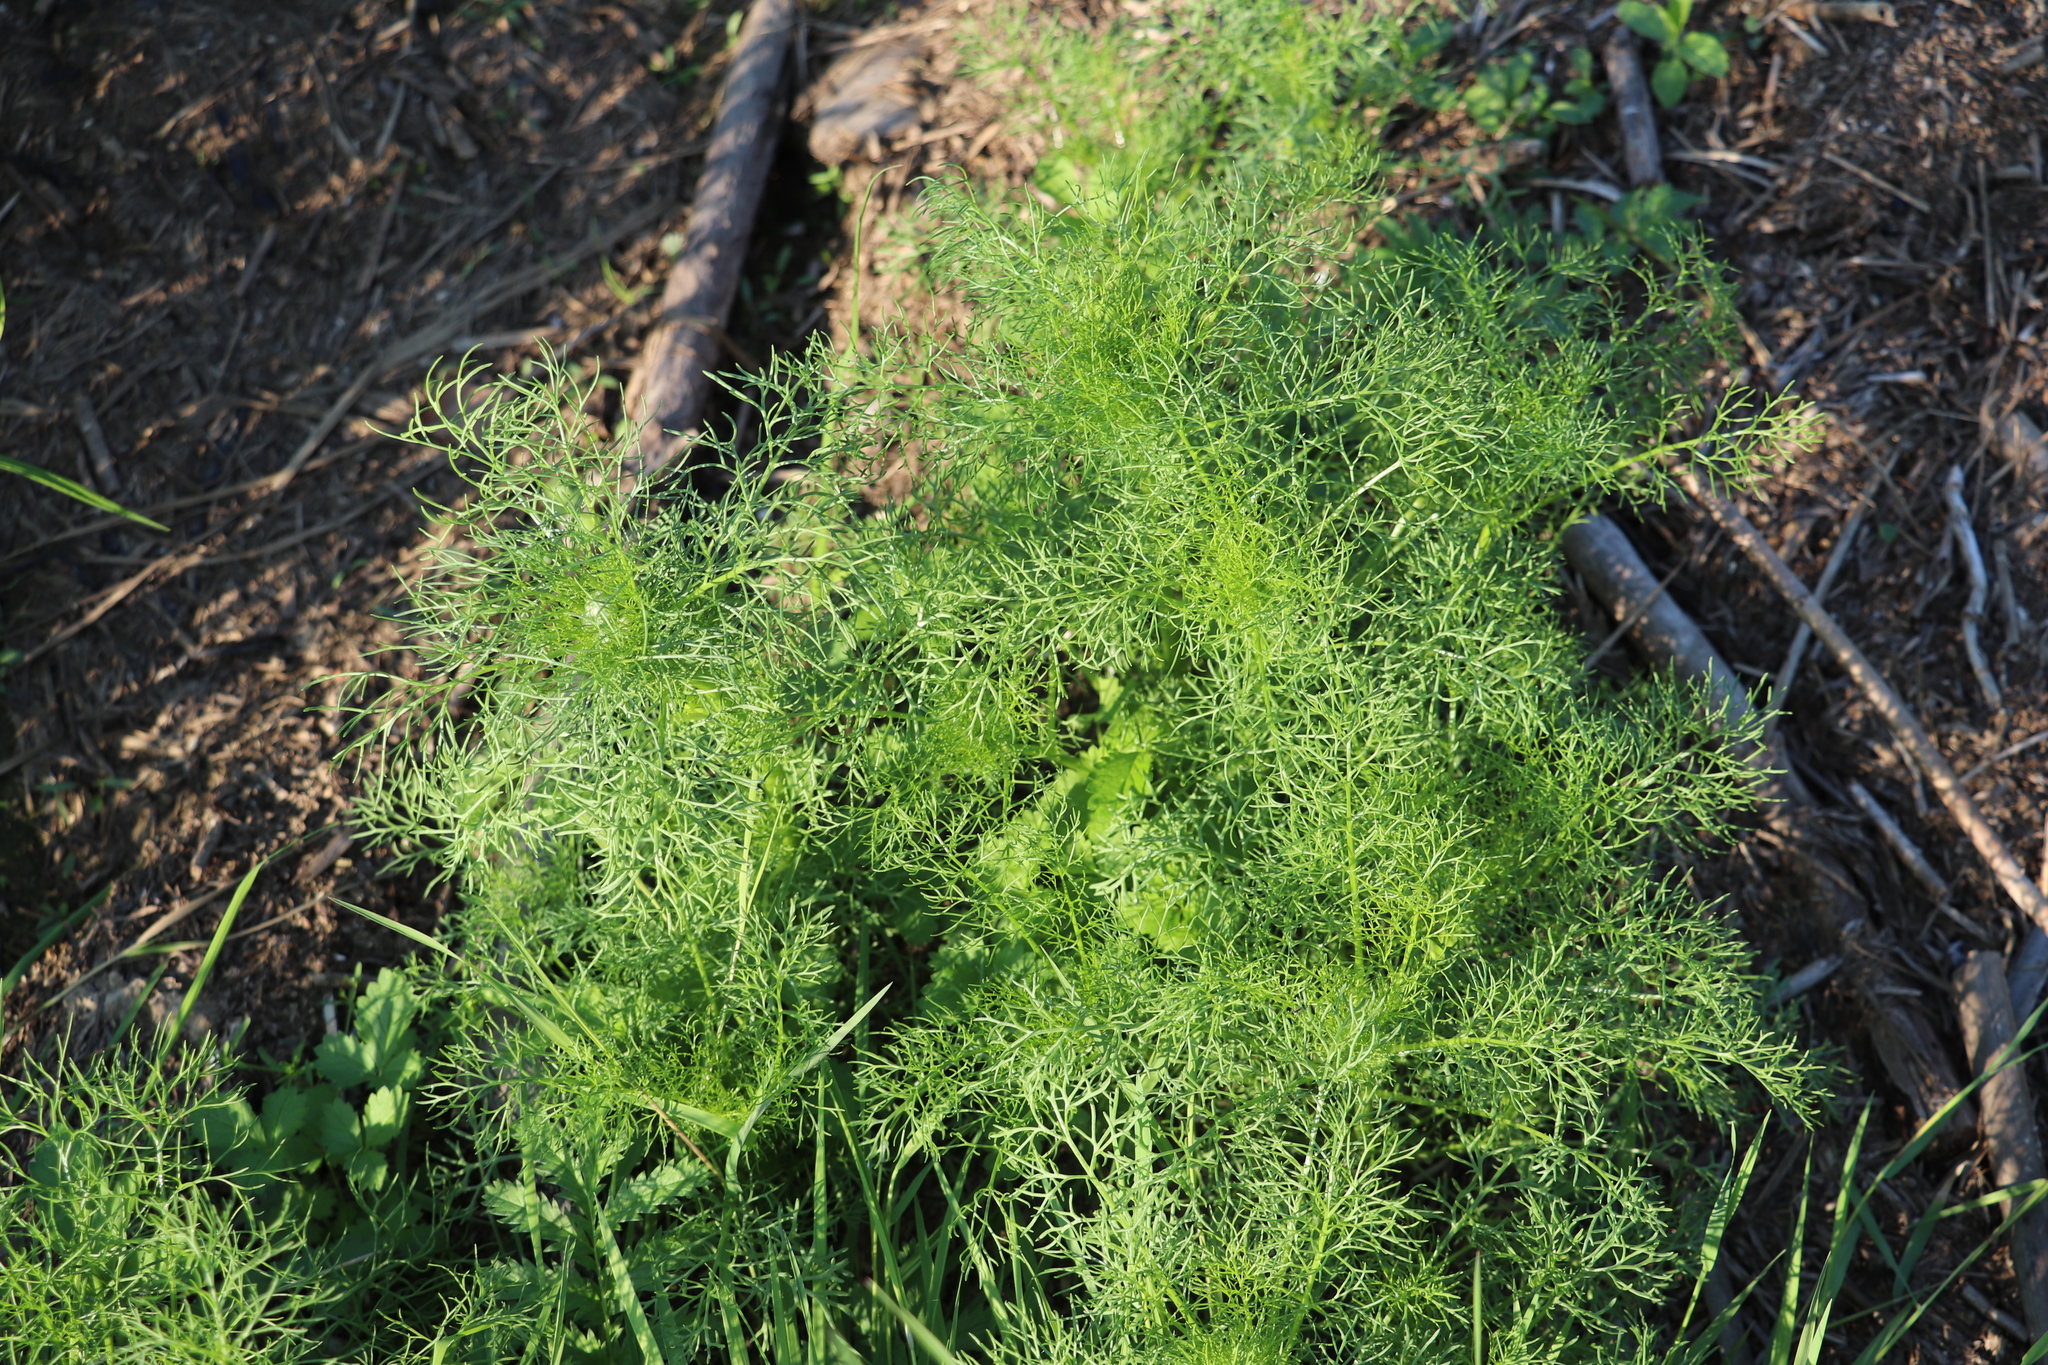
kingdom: Plantae
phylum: Tracheophyta
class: Magnoliopsida
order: Asterales
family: Asteraceae
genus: Tripleurospermum
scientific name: Tripleurospermum inodorum
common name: Scentless mayweed
